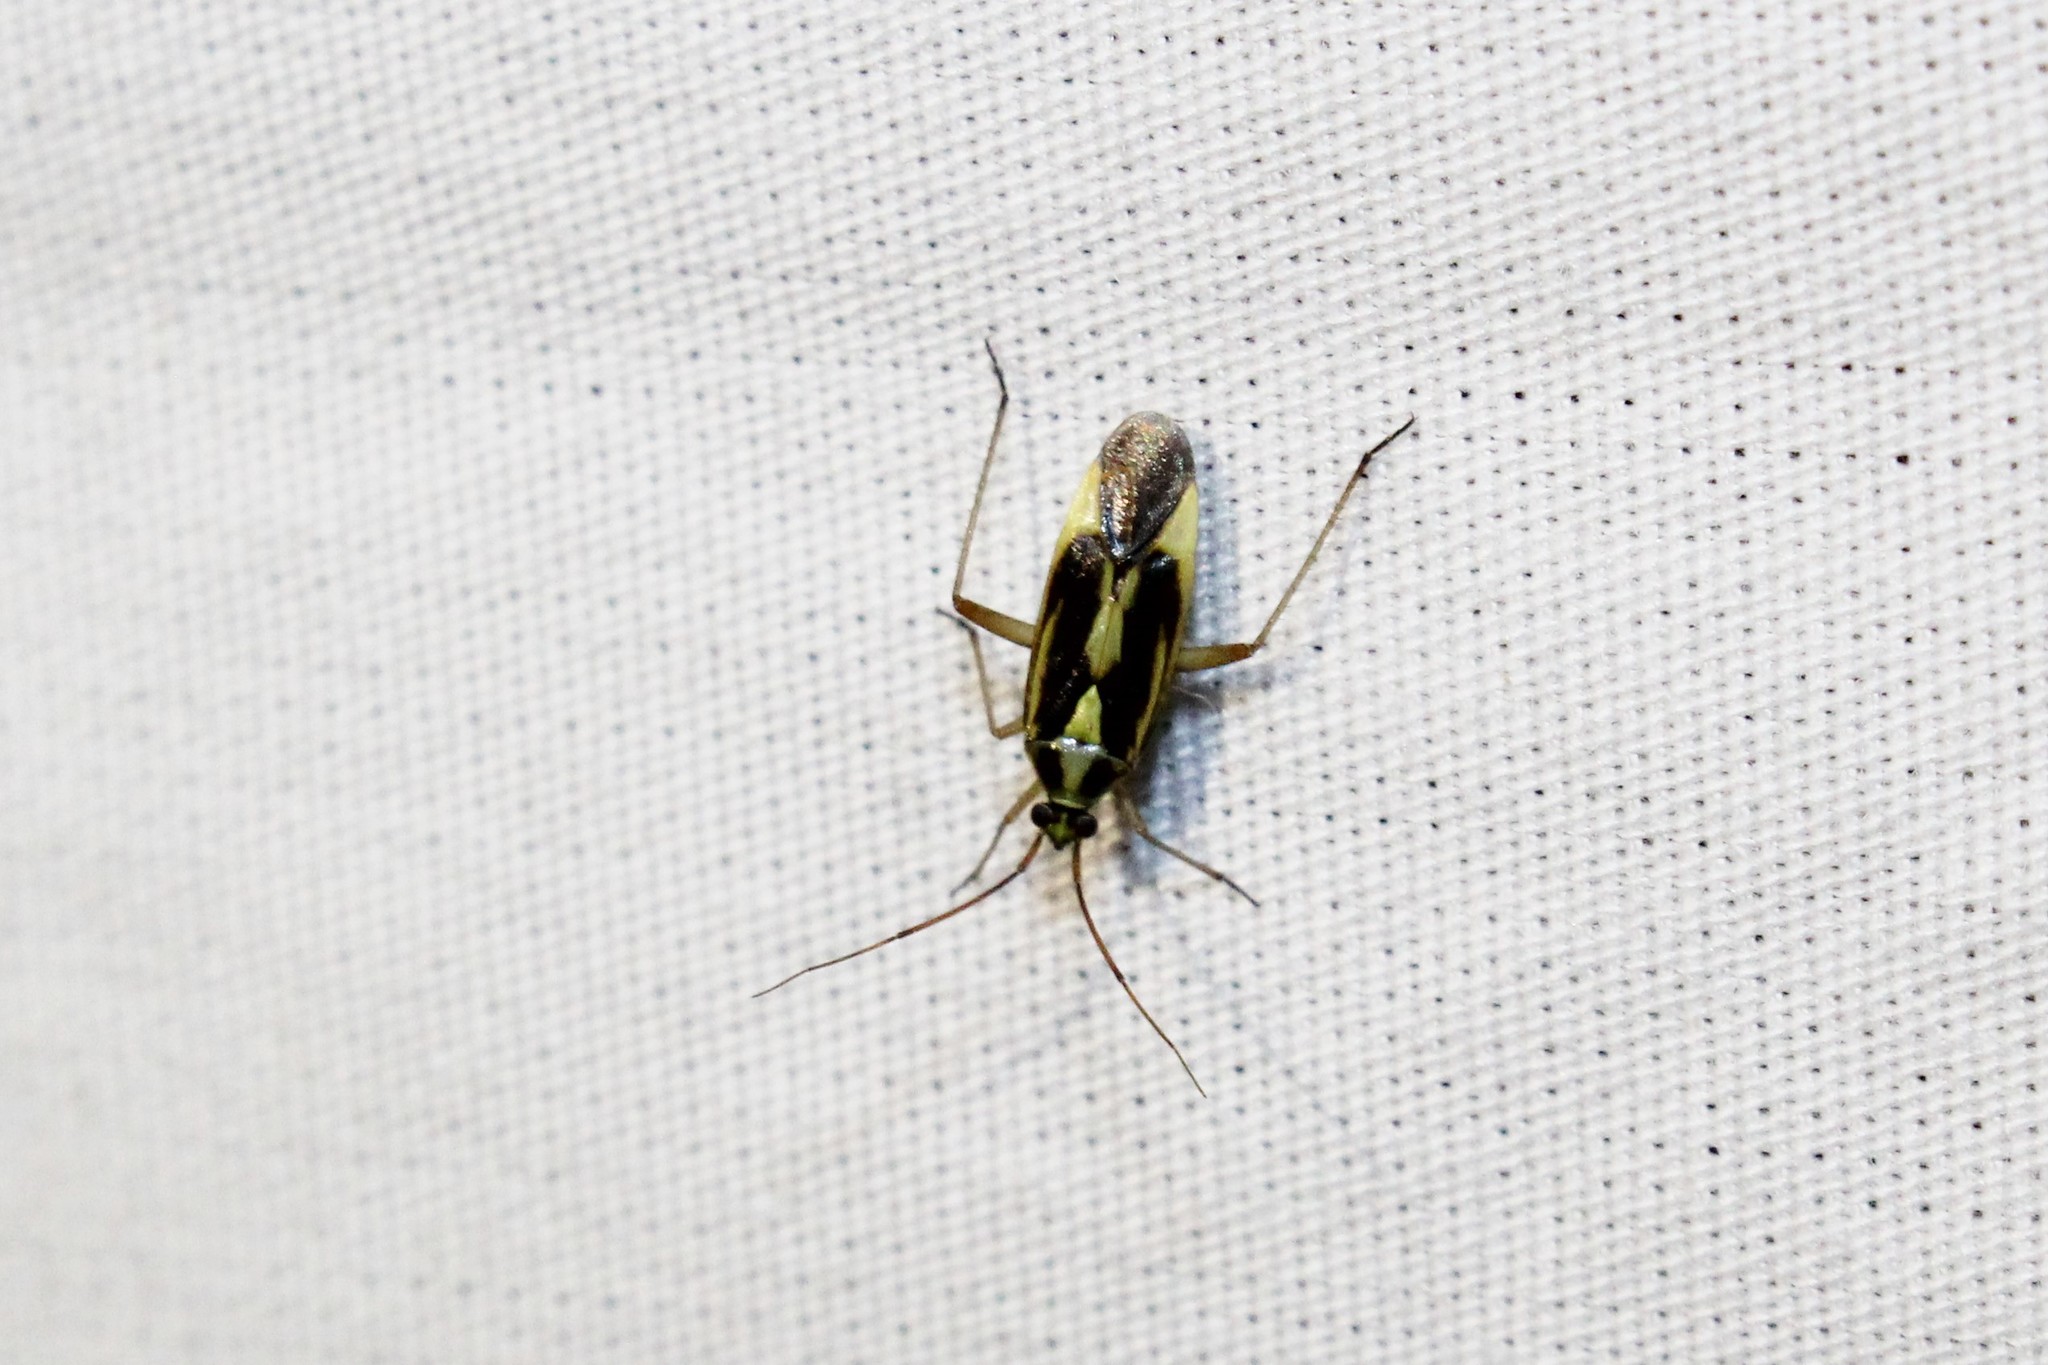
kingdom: Animalia
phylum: Arthropoda
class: Insecta
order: Hemiptera
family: Miridae
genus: Stenotus
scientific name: Stenotus binotatus
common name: Plant bug
